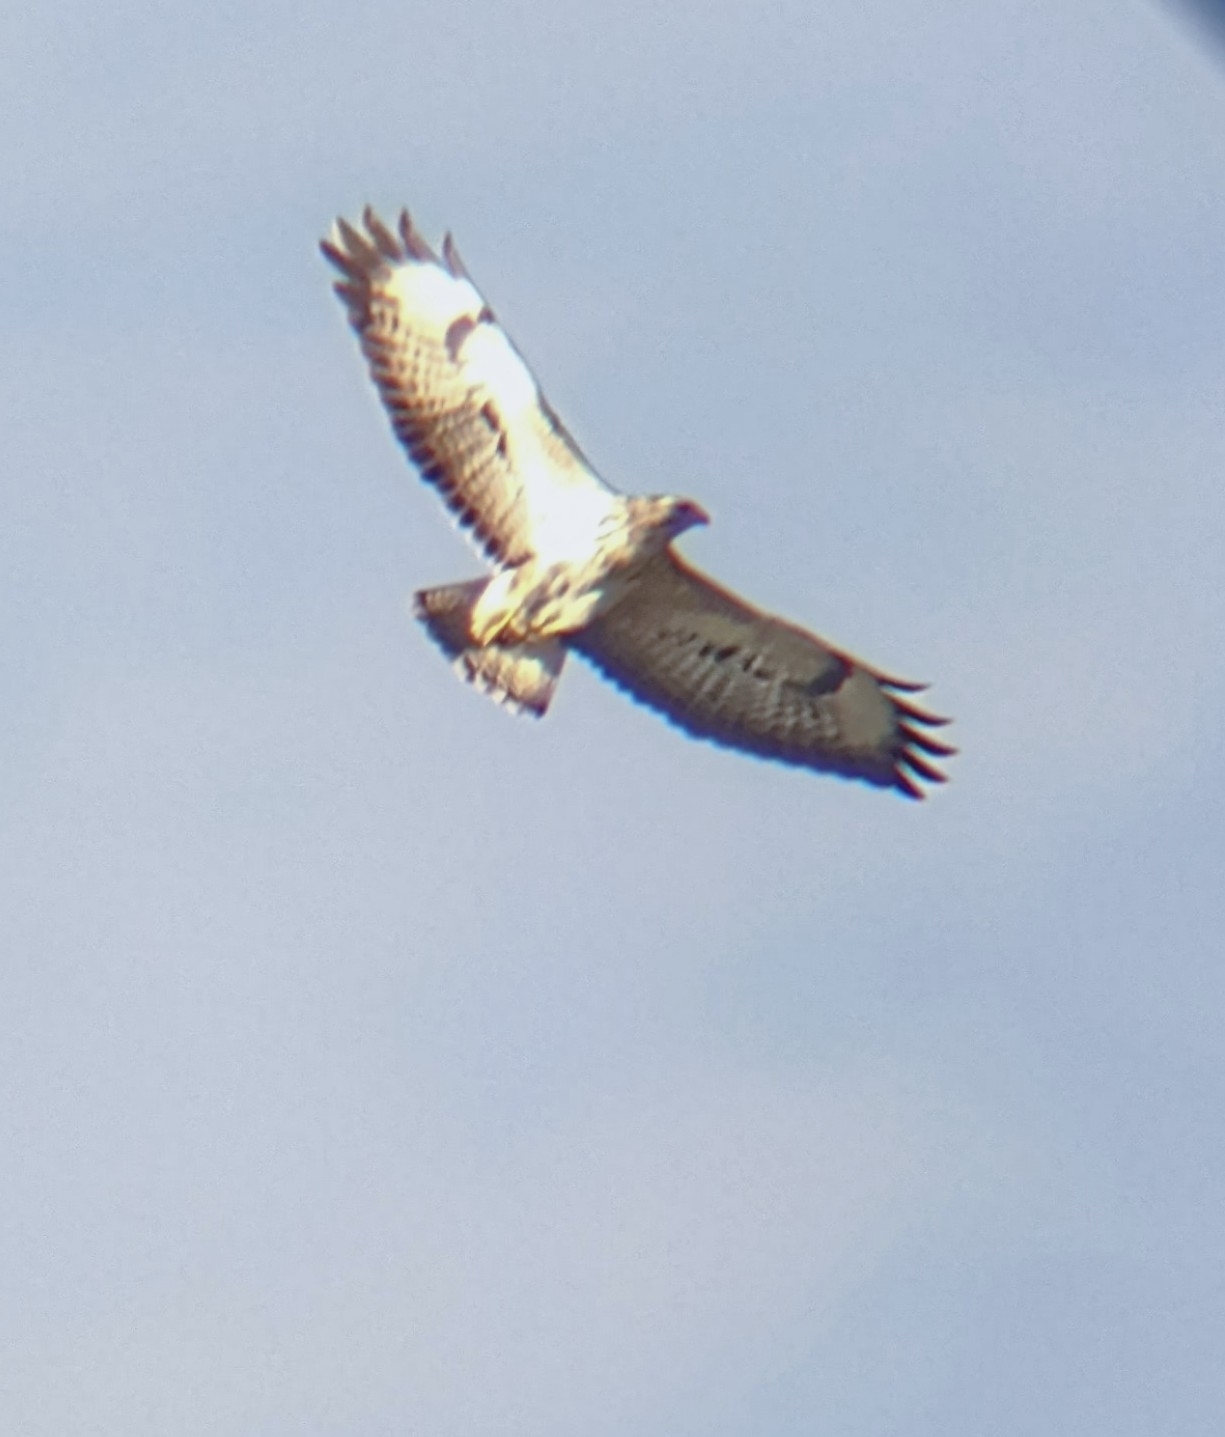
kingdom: Animalia
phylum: Chordata
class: Aves
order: Accipitriformes
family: Accipitridae
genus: Buteo
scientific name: Buteo buteo
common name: Common buzzard
